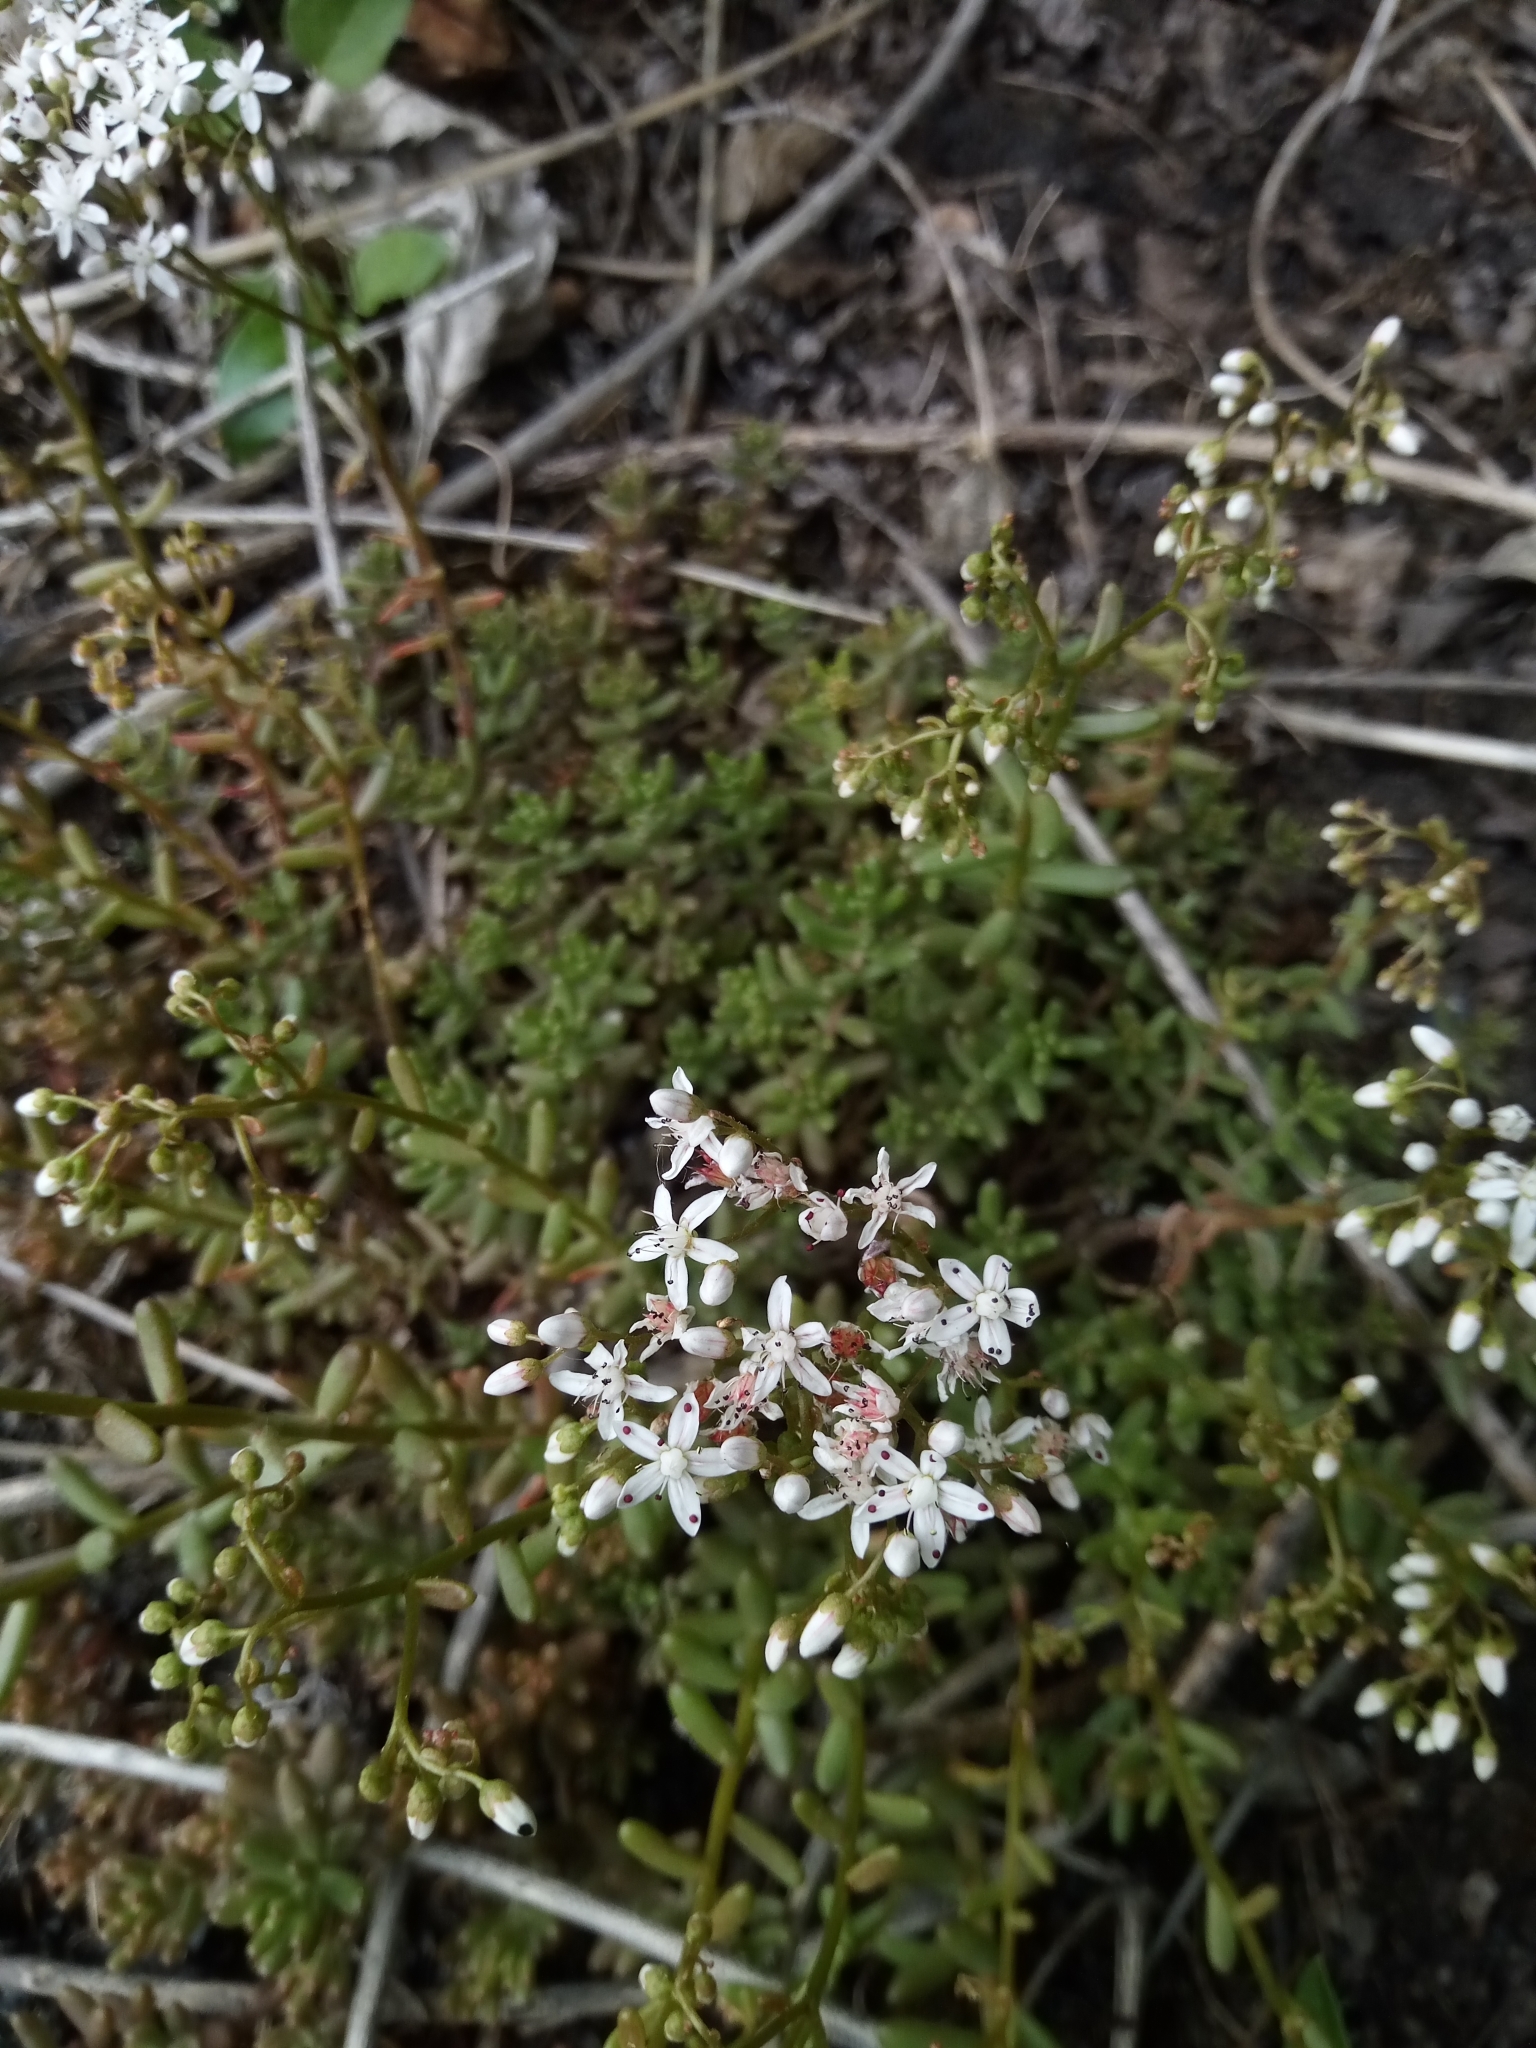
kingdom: Plantae
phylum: Tracheophyta
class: Magnoliopsida
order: Saxifragales
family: Crassulaceae
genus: Sedum
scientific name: Sedum album
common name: White stonecrop
